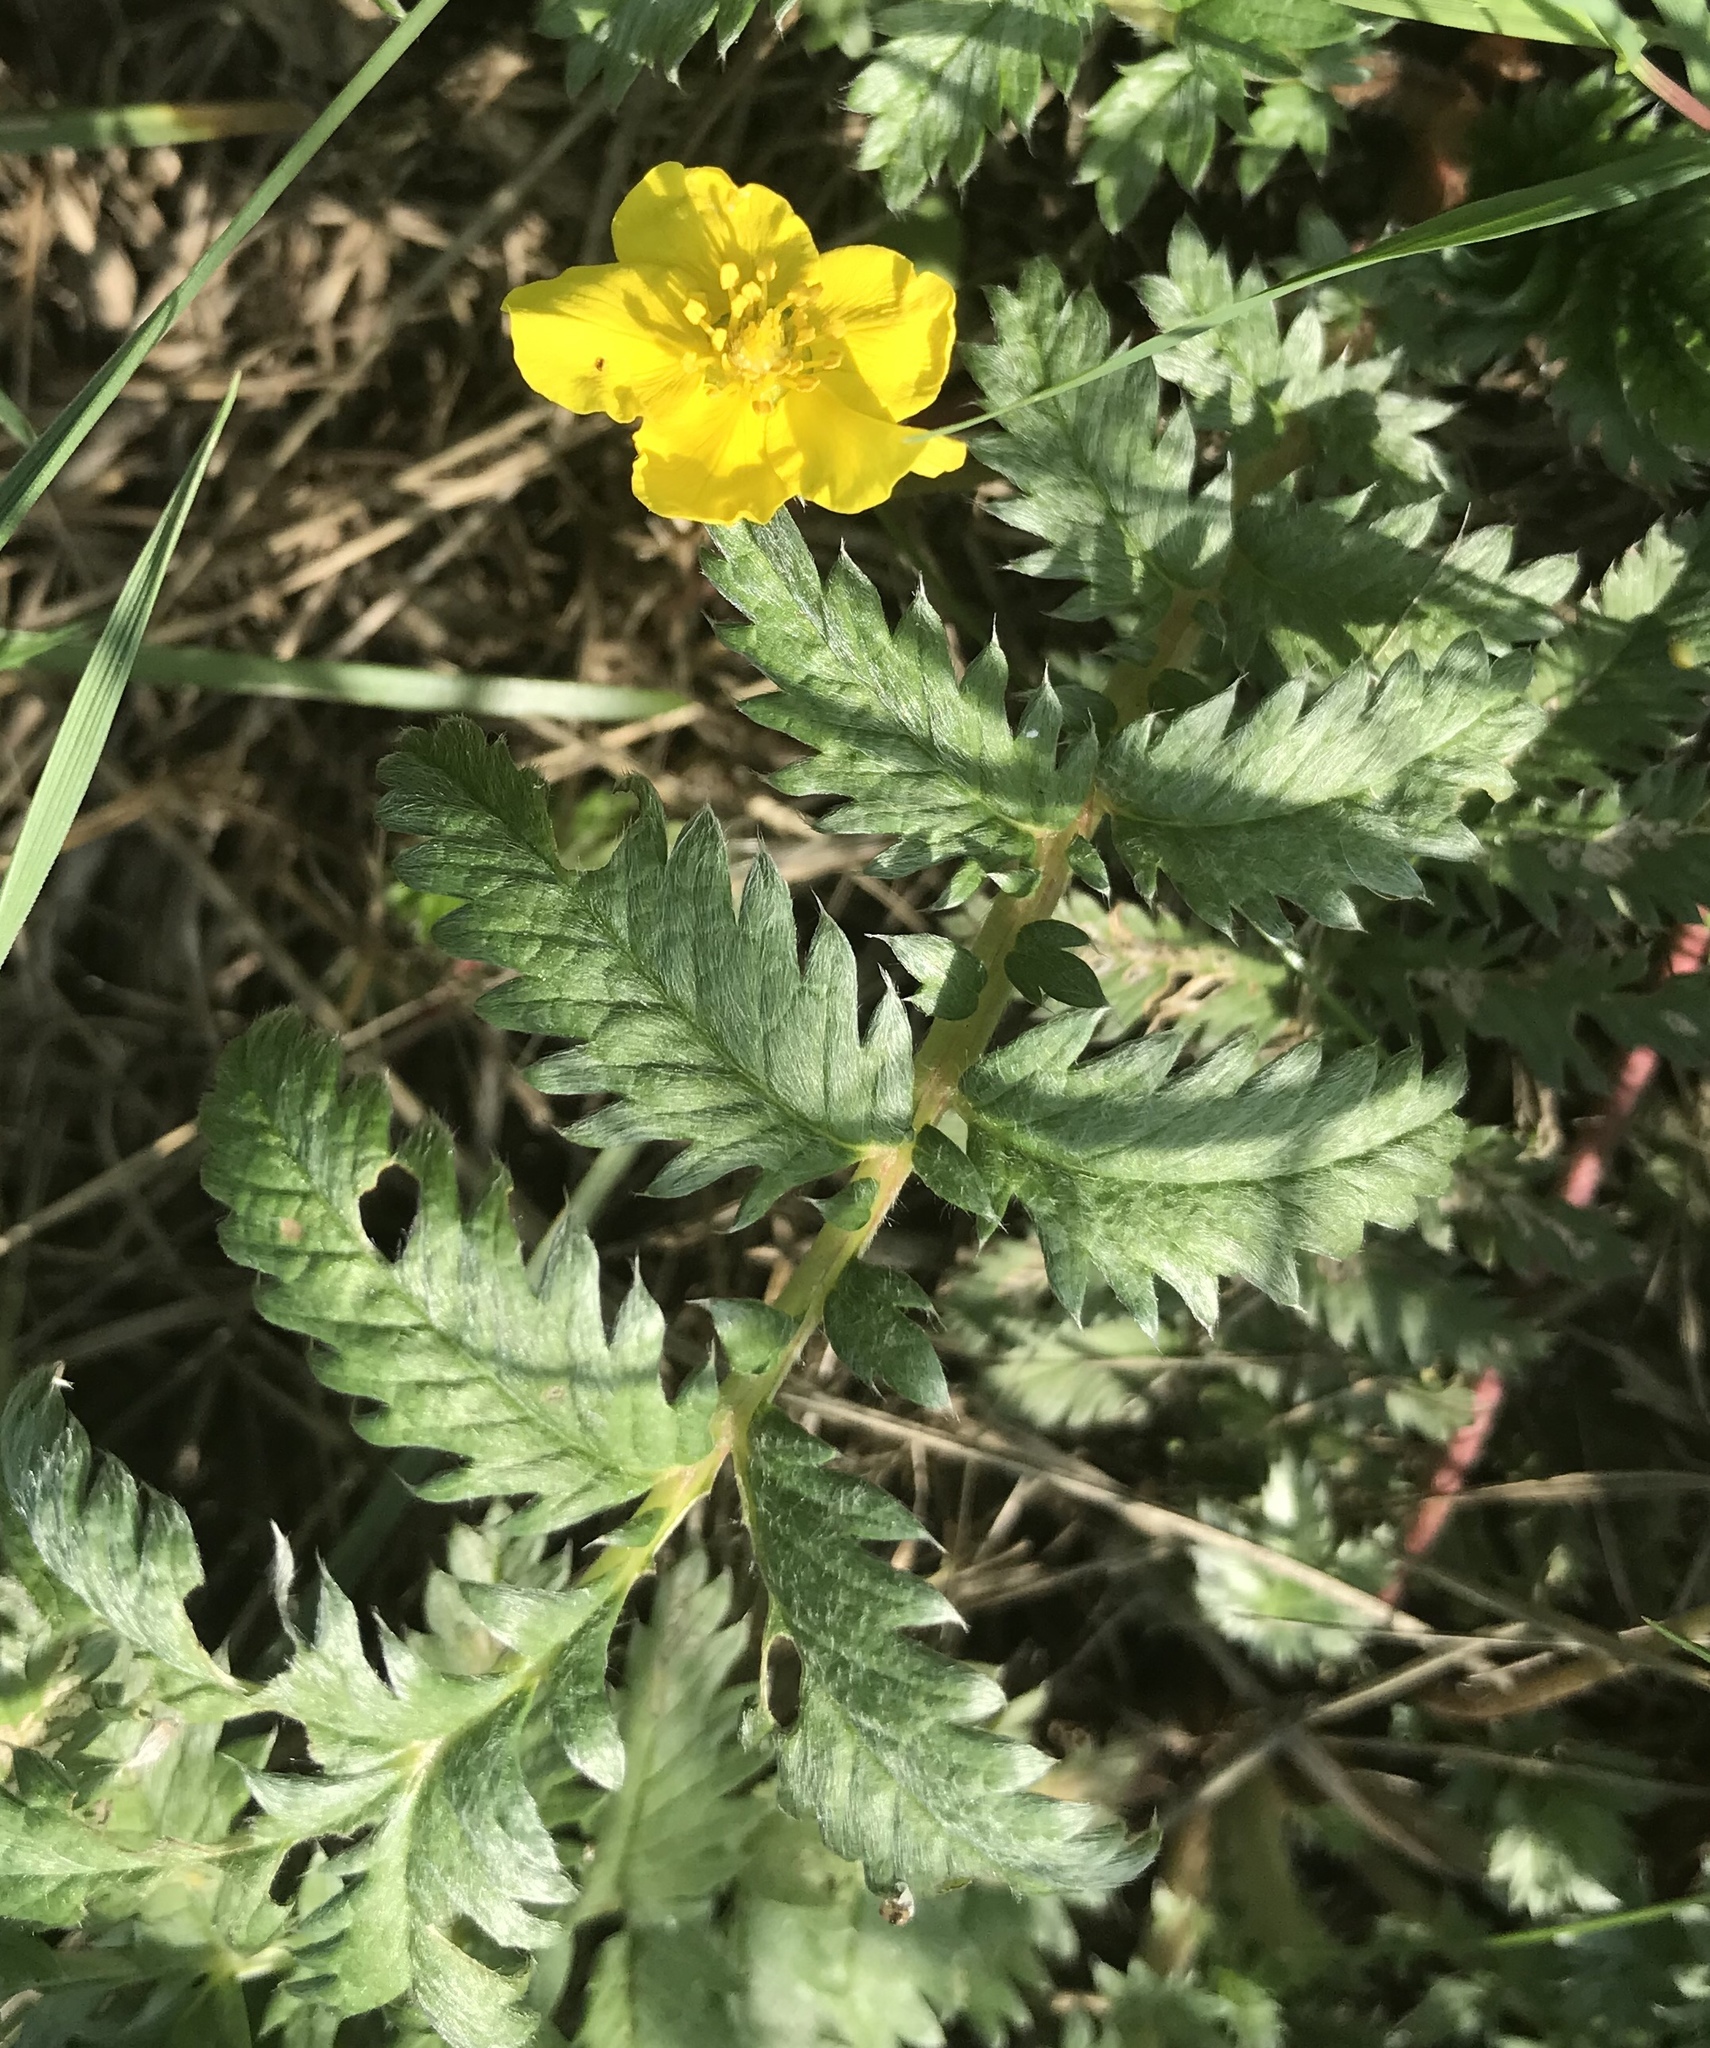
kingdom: Plantae
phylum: Tracheophyta
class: Magnoliopsida
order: Rosales
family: Rosaceae
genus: Argentina
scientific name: Argentina anserina
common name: Common silverweed
